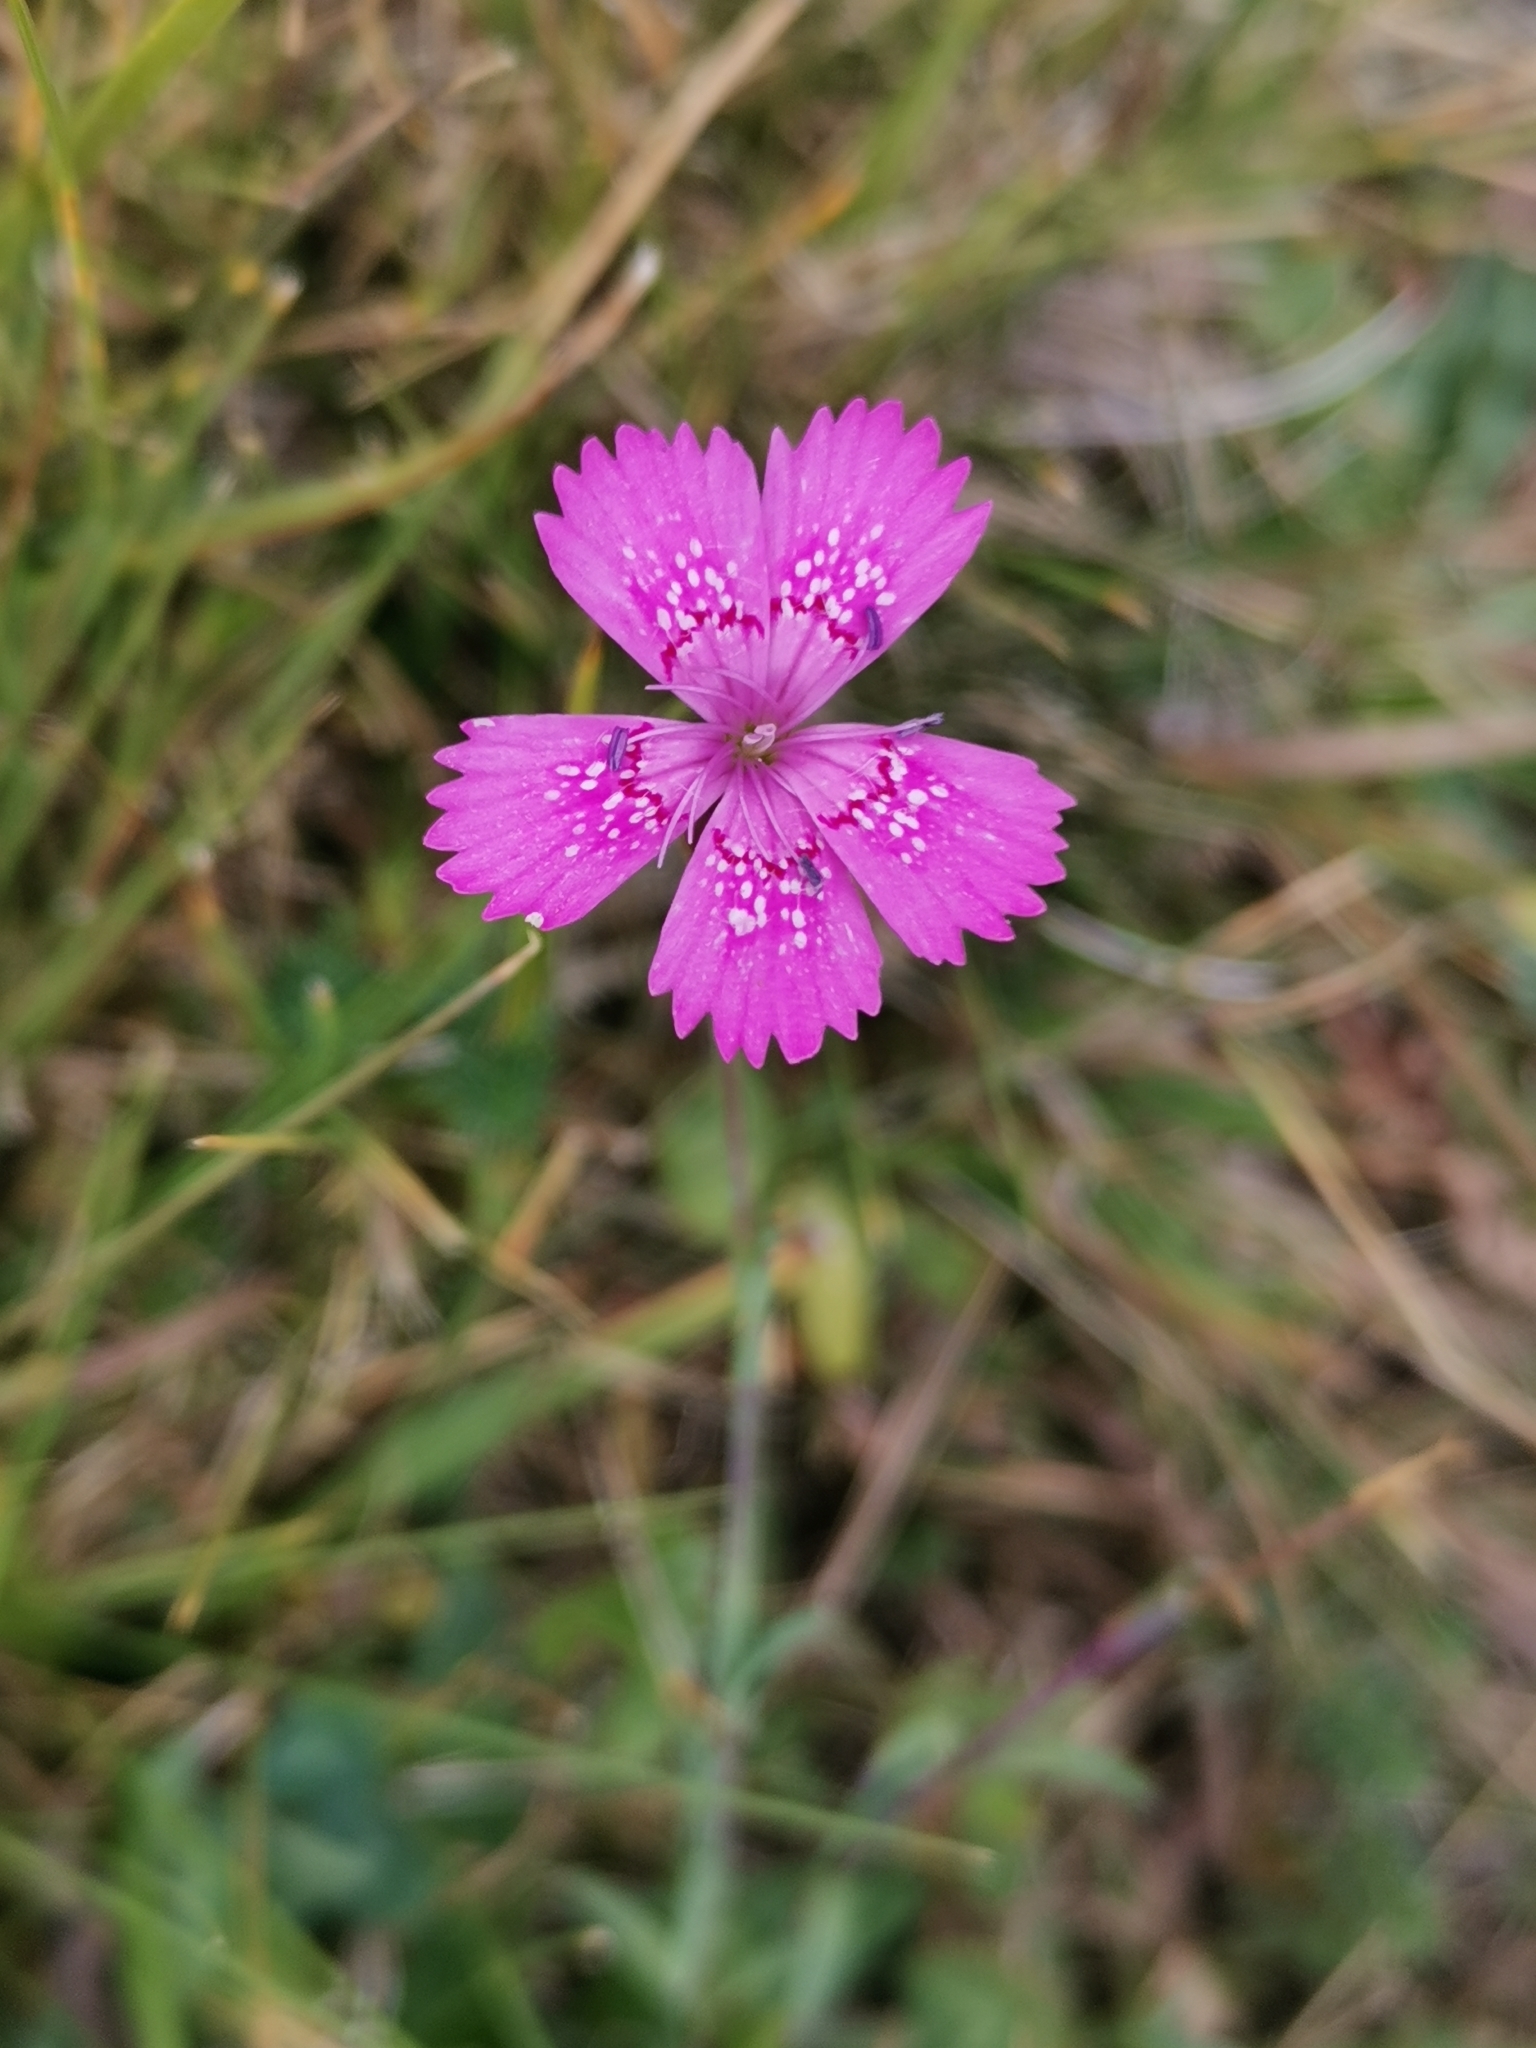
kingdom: Plantae
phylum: Tracheophyta
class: Magnoliopsida
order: Caryophyllales
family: Caryophyllaceae
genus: Dianthus
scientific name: Dianthus deltoides
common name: Maiden pink
